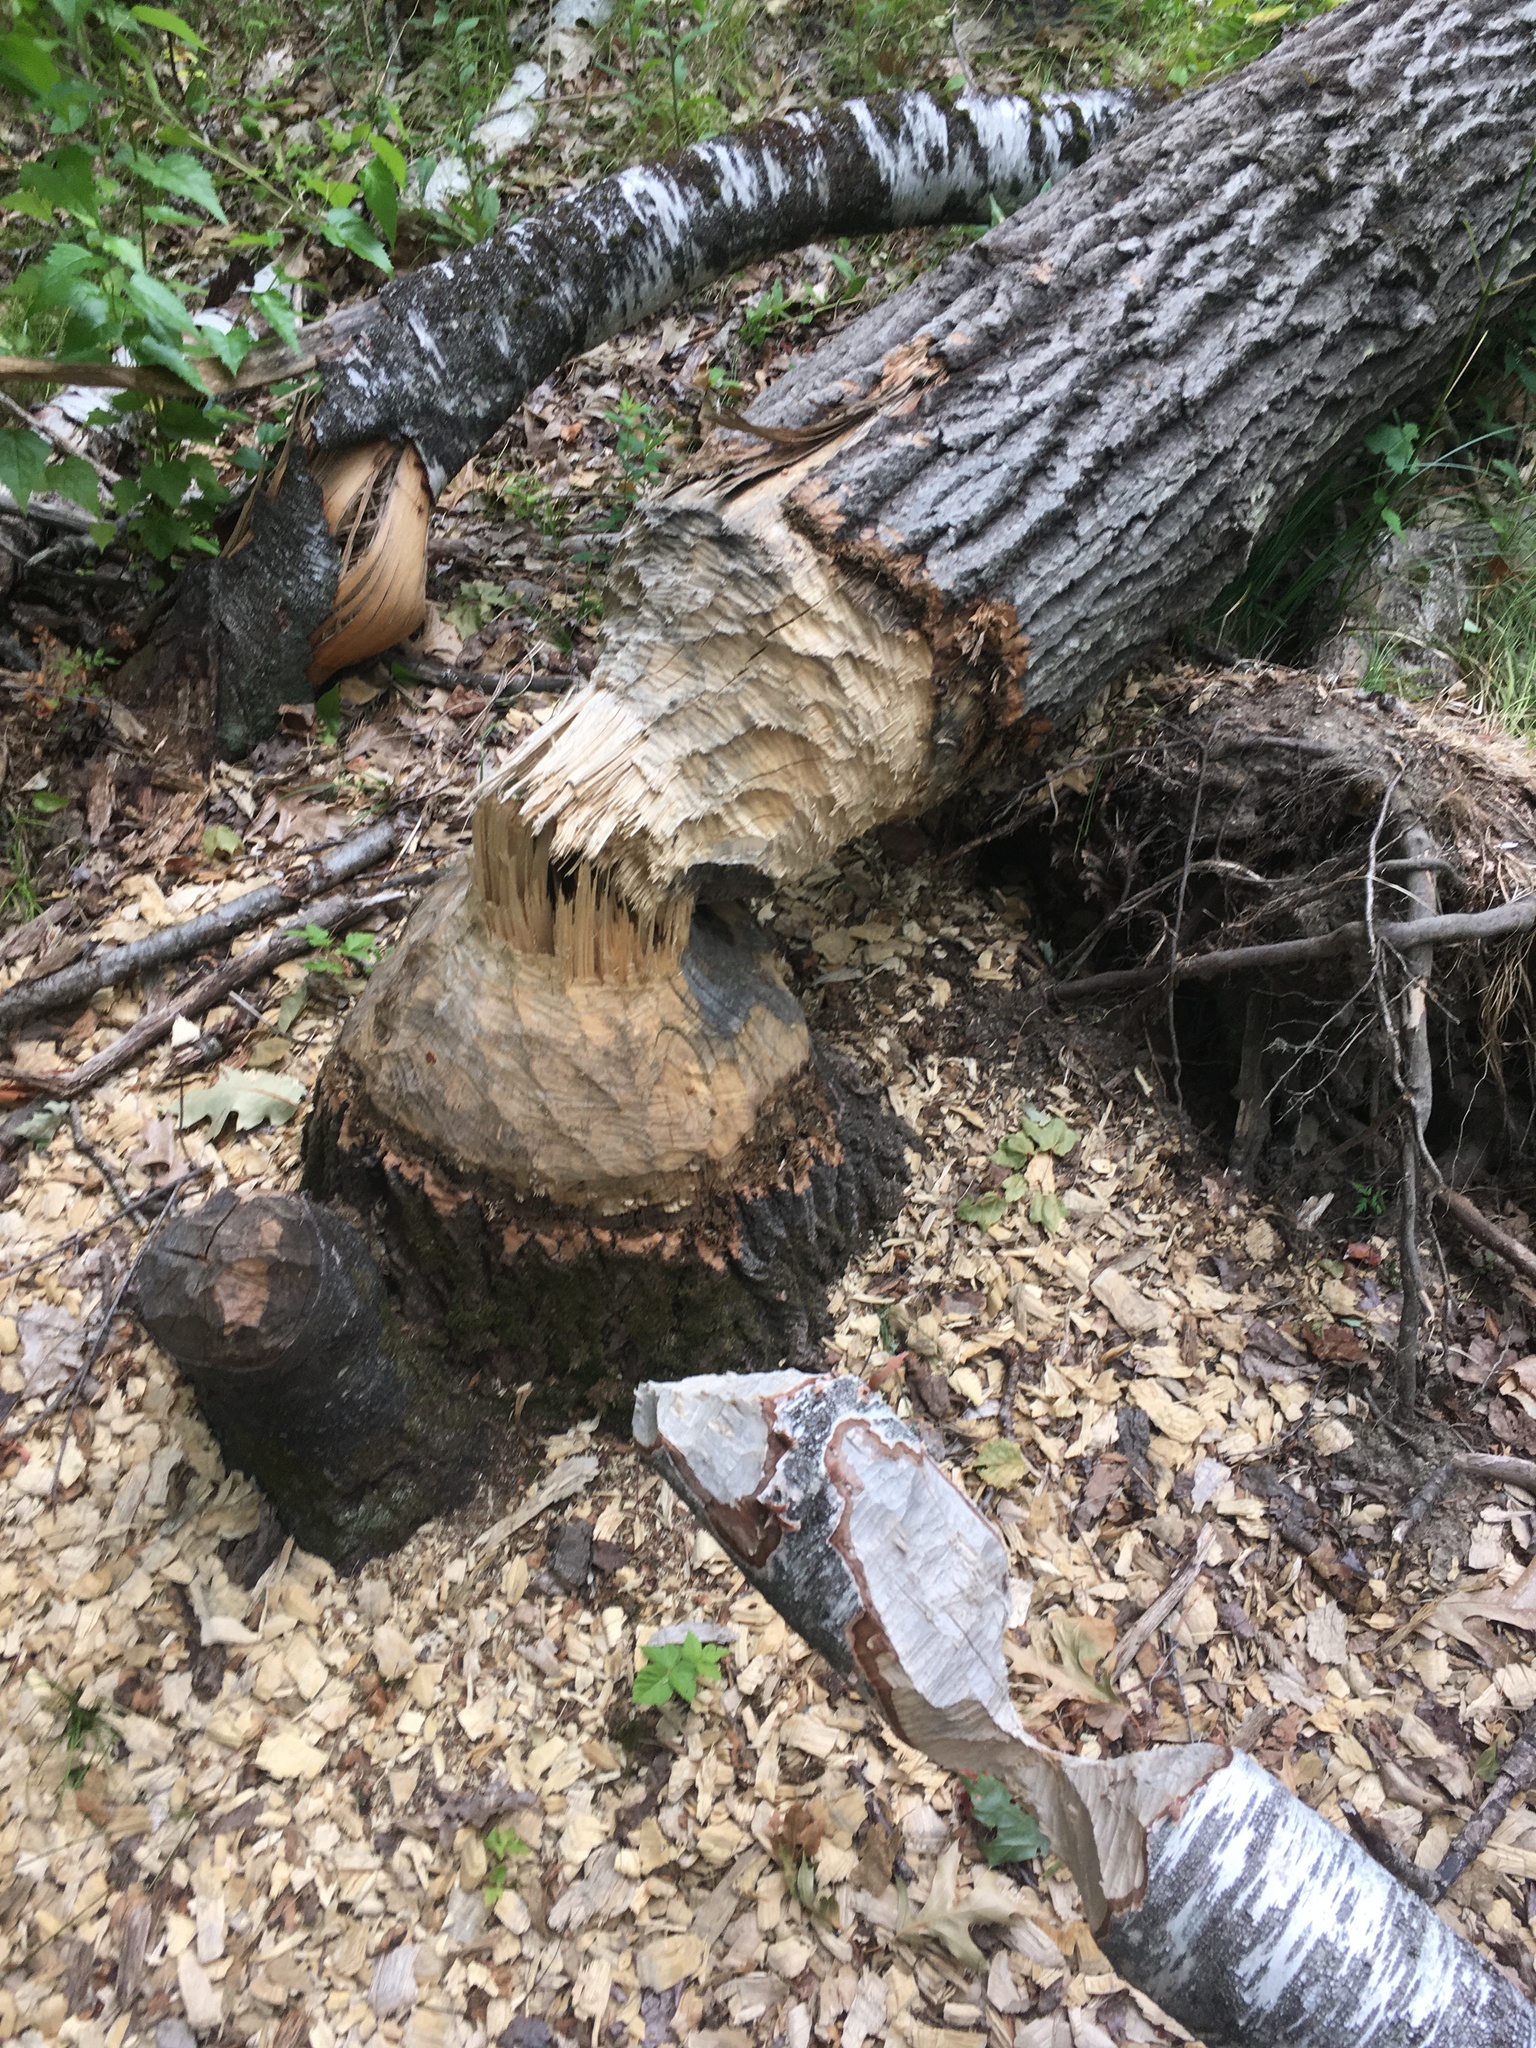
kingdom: Animalia
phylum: Chordata
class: Mammalia
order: Rodentia
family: Castoridae
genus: Castor
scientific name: Castor canadensis
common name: American beaver
